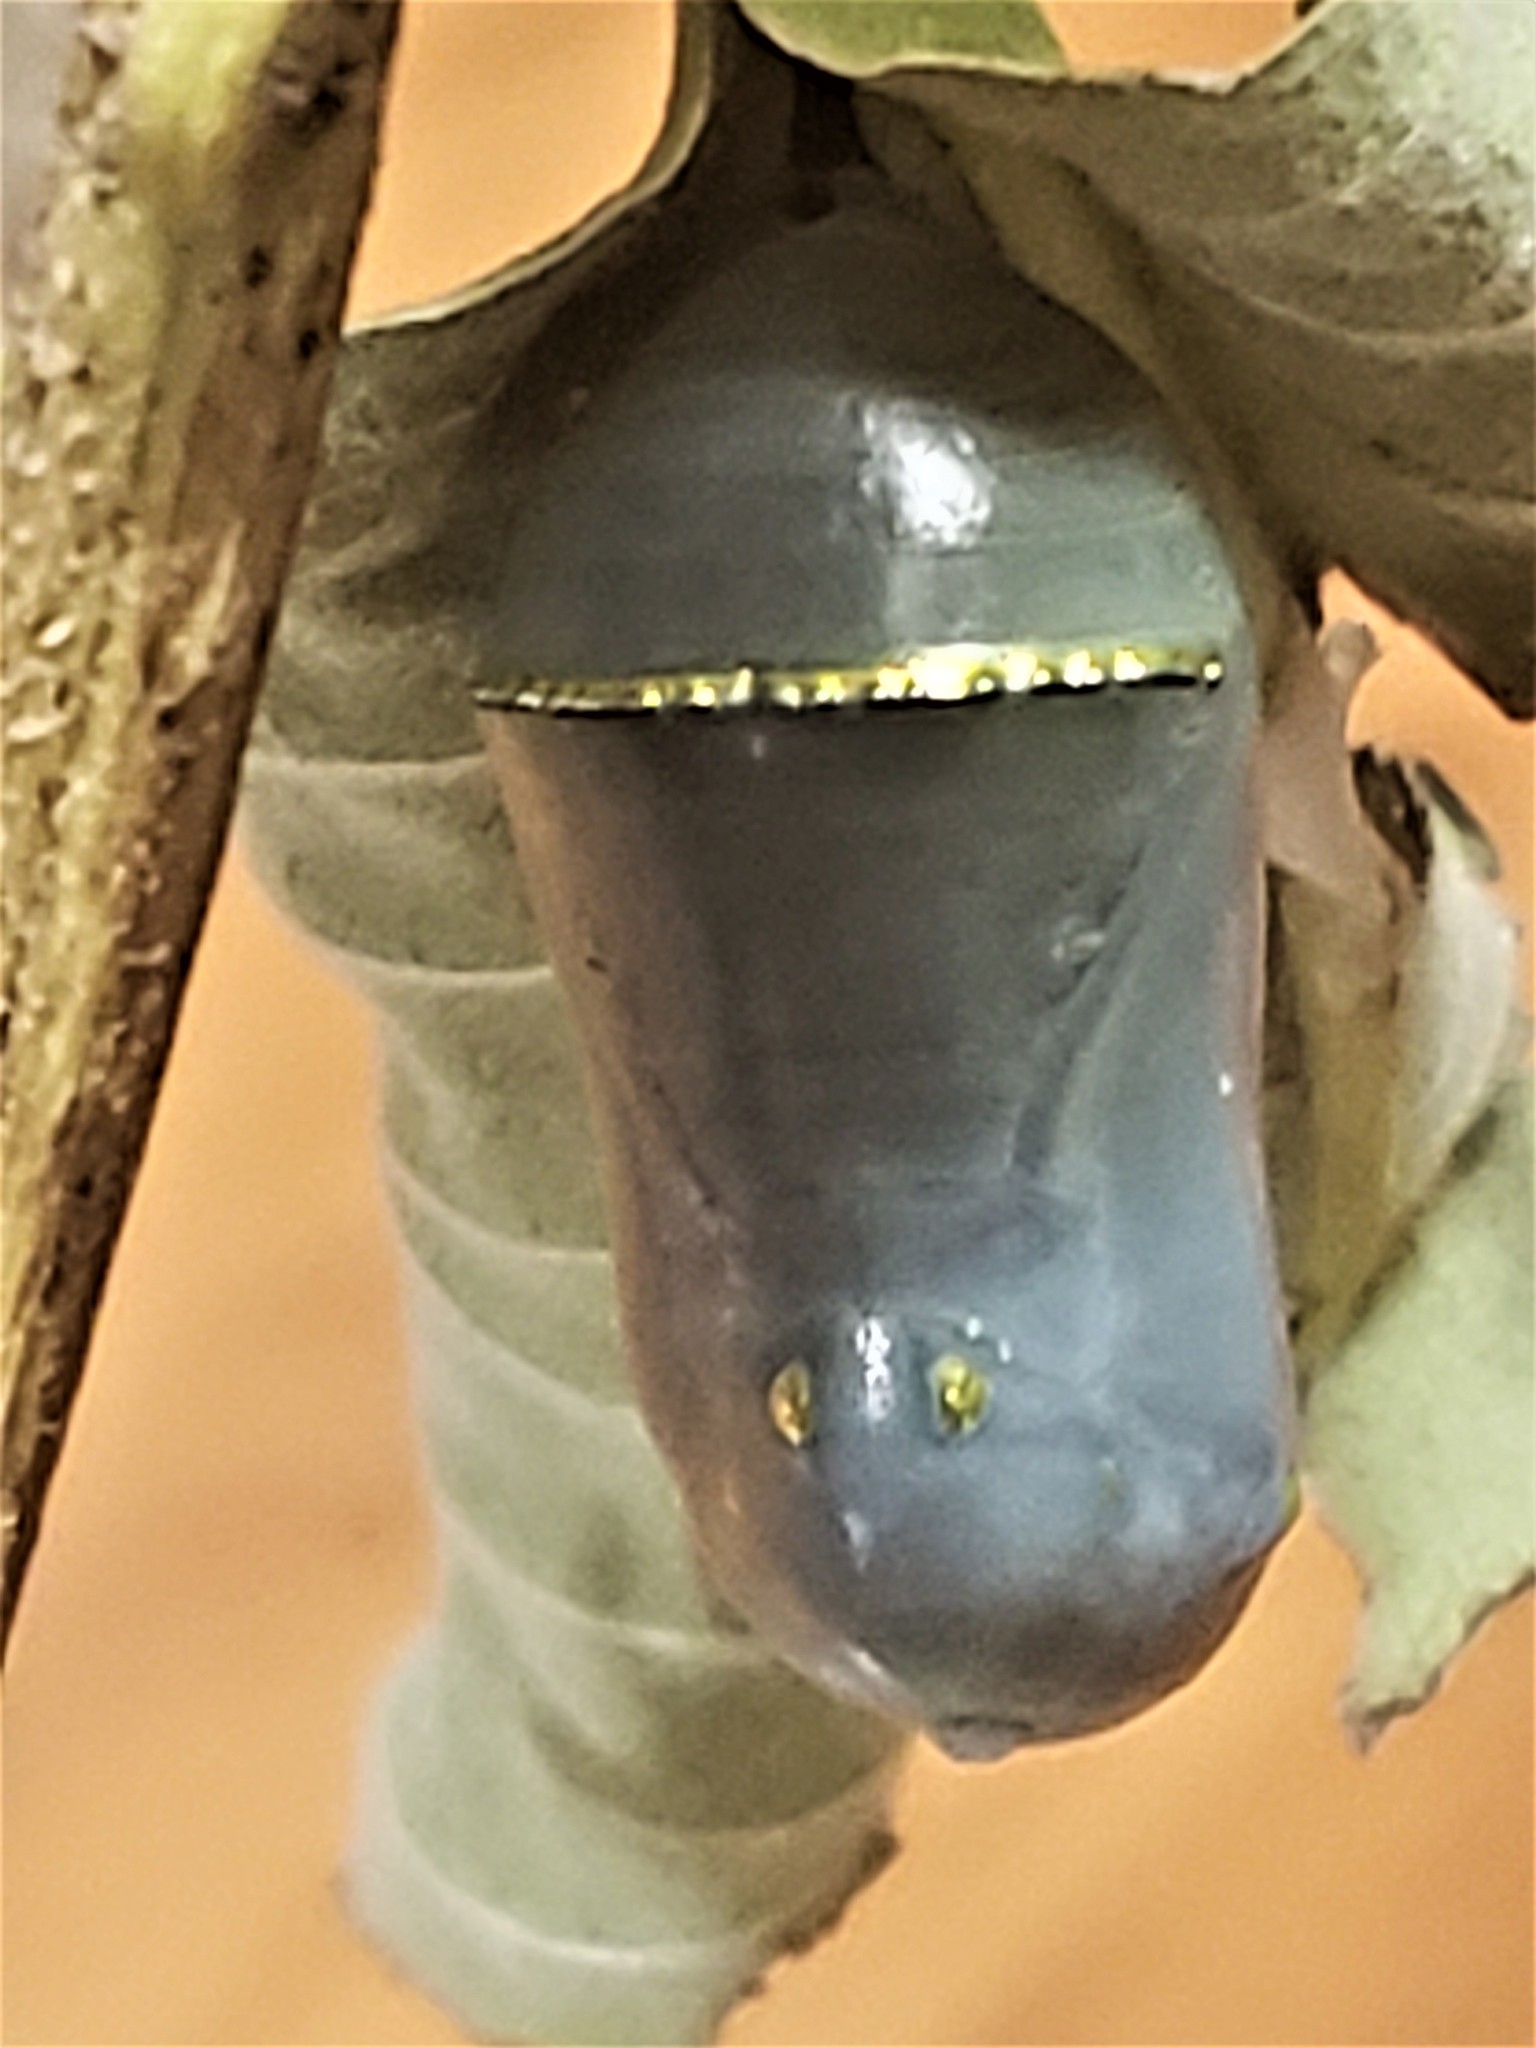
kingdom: Animalia
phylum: Arthropoda
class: Insecta
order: Lepidoptera
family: Nymphalidae
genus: Danaus
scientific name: Danaus plexippus
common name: Monarch
